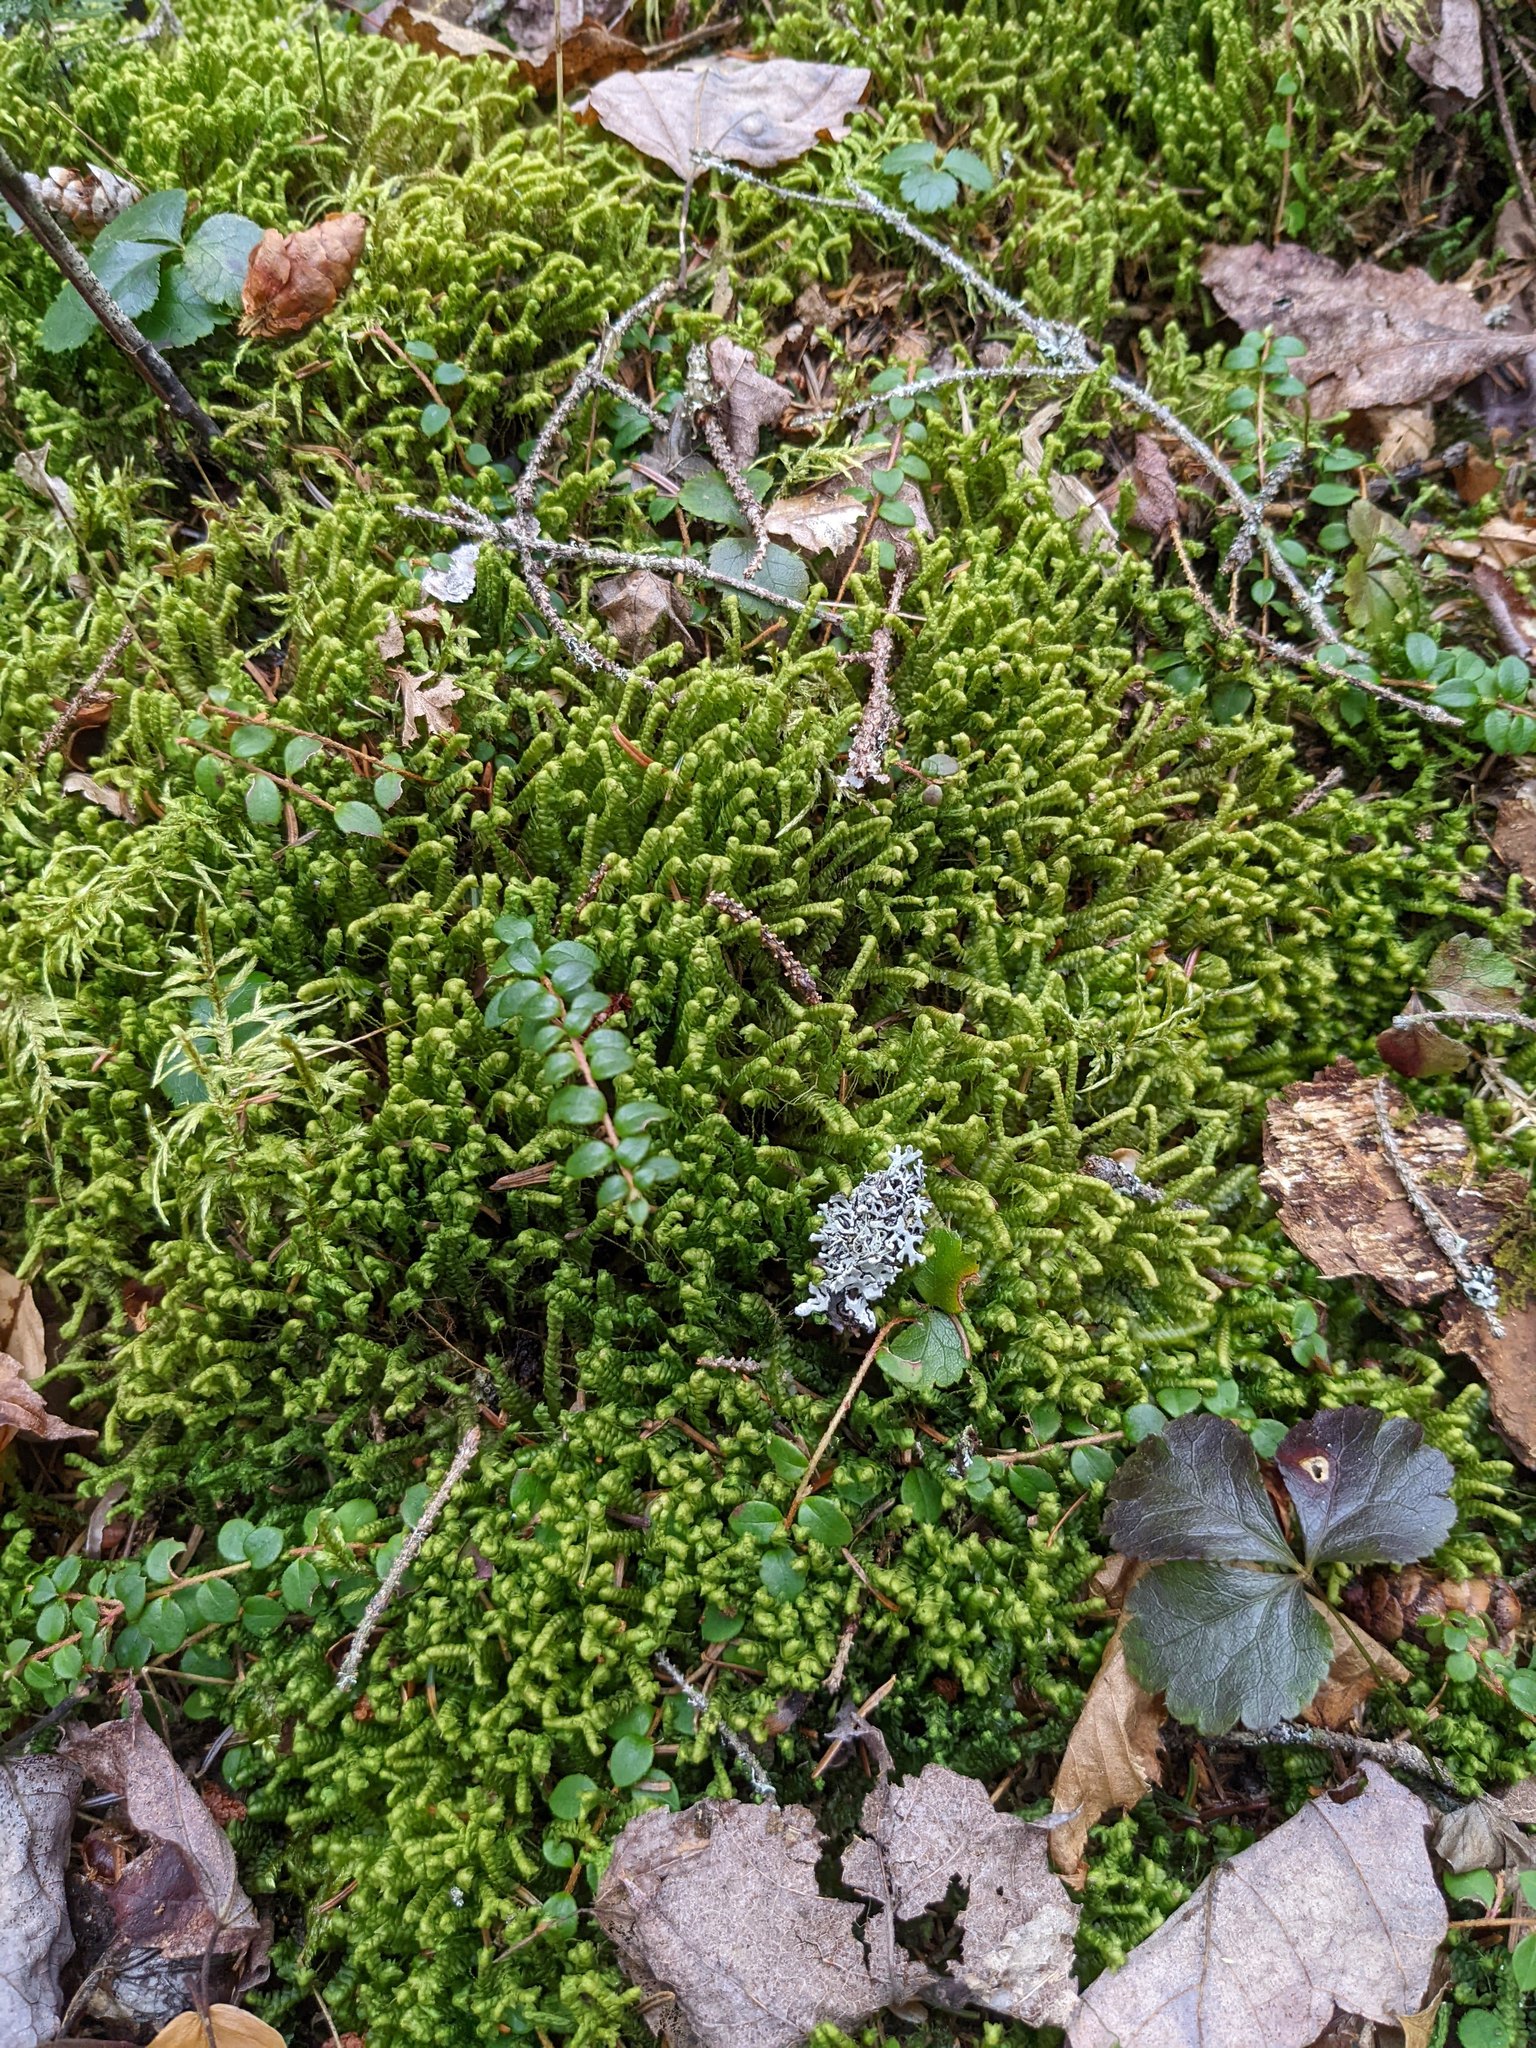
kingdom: Plantae
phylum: Tracheophyta
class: Magnoliopsida
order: Ranunculales
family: Ranunculaceae
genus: Coptis
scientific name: Coptis trifolia
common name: Canker-root
